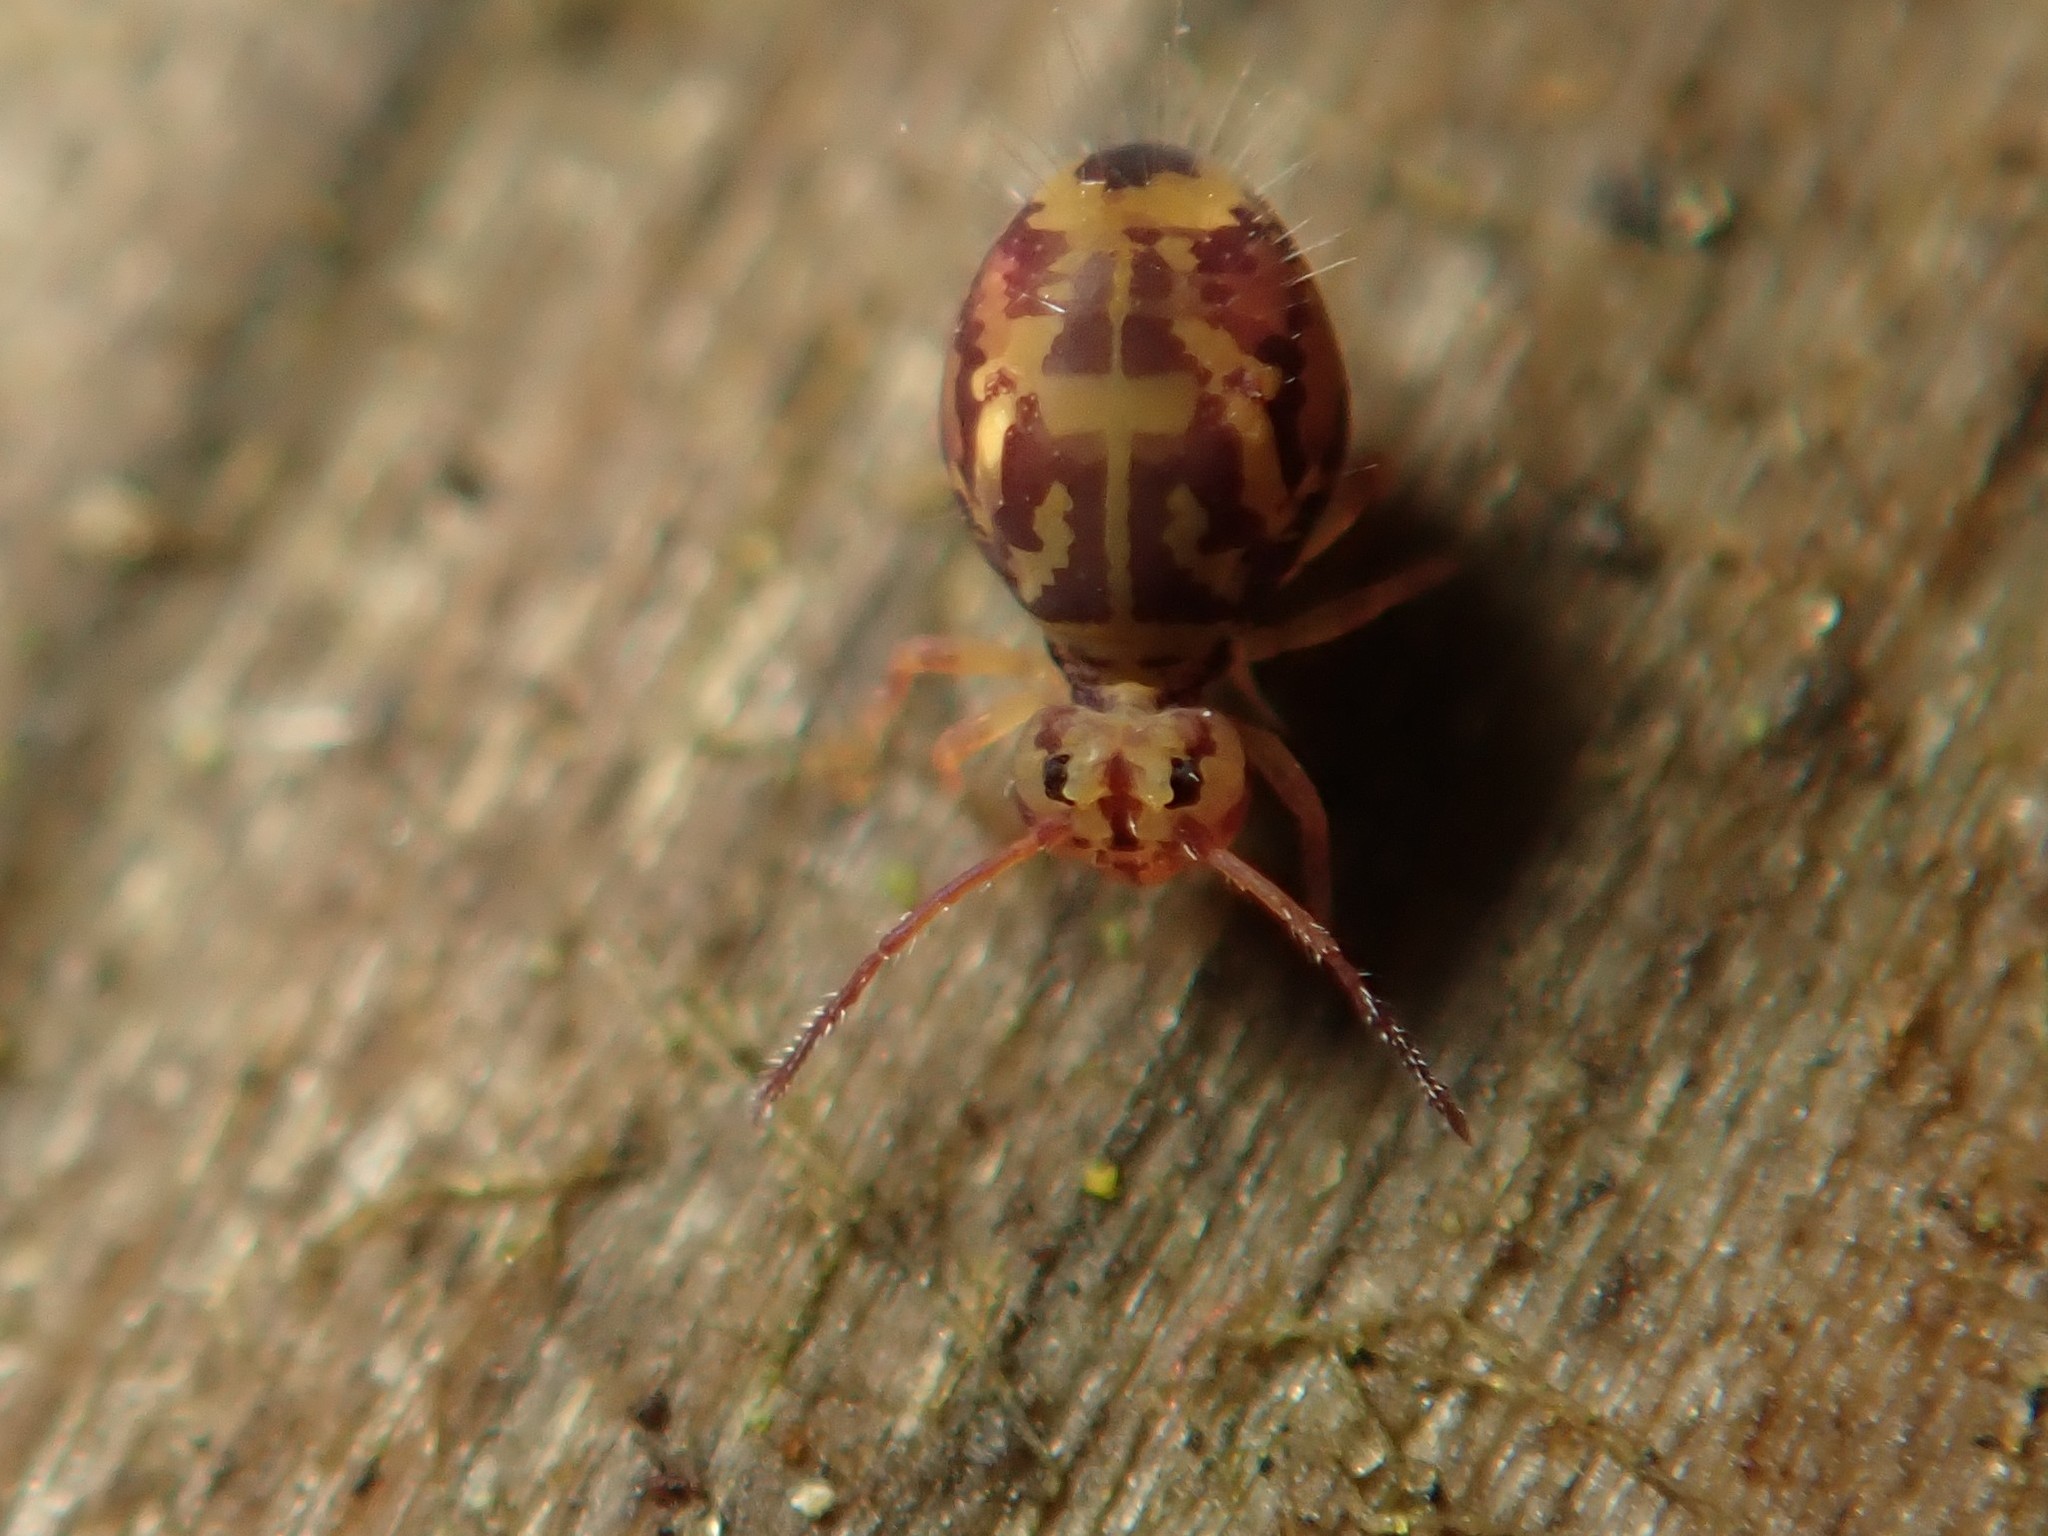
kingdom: Animalia
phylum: Arthropoda
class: Collembola
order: Symphypleona
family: Dicyrtomidae
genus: Dicyrtomina
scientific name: Dicyrtomina ornata
